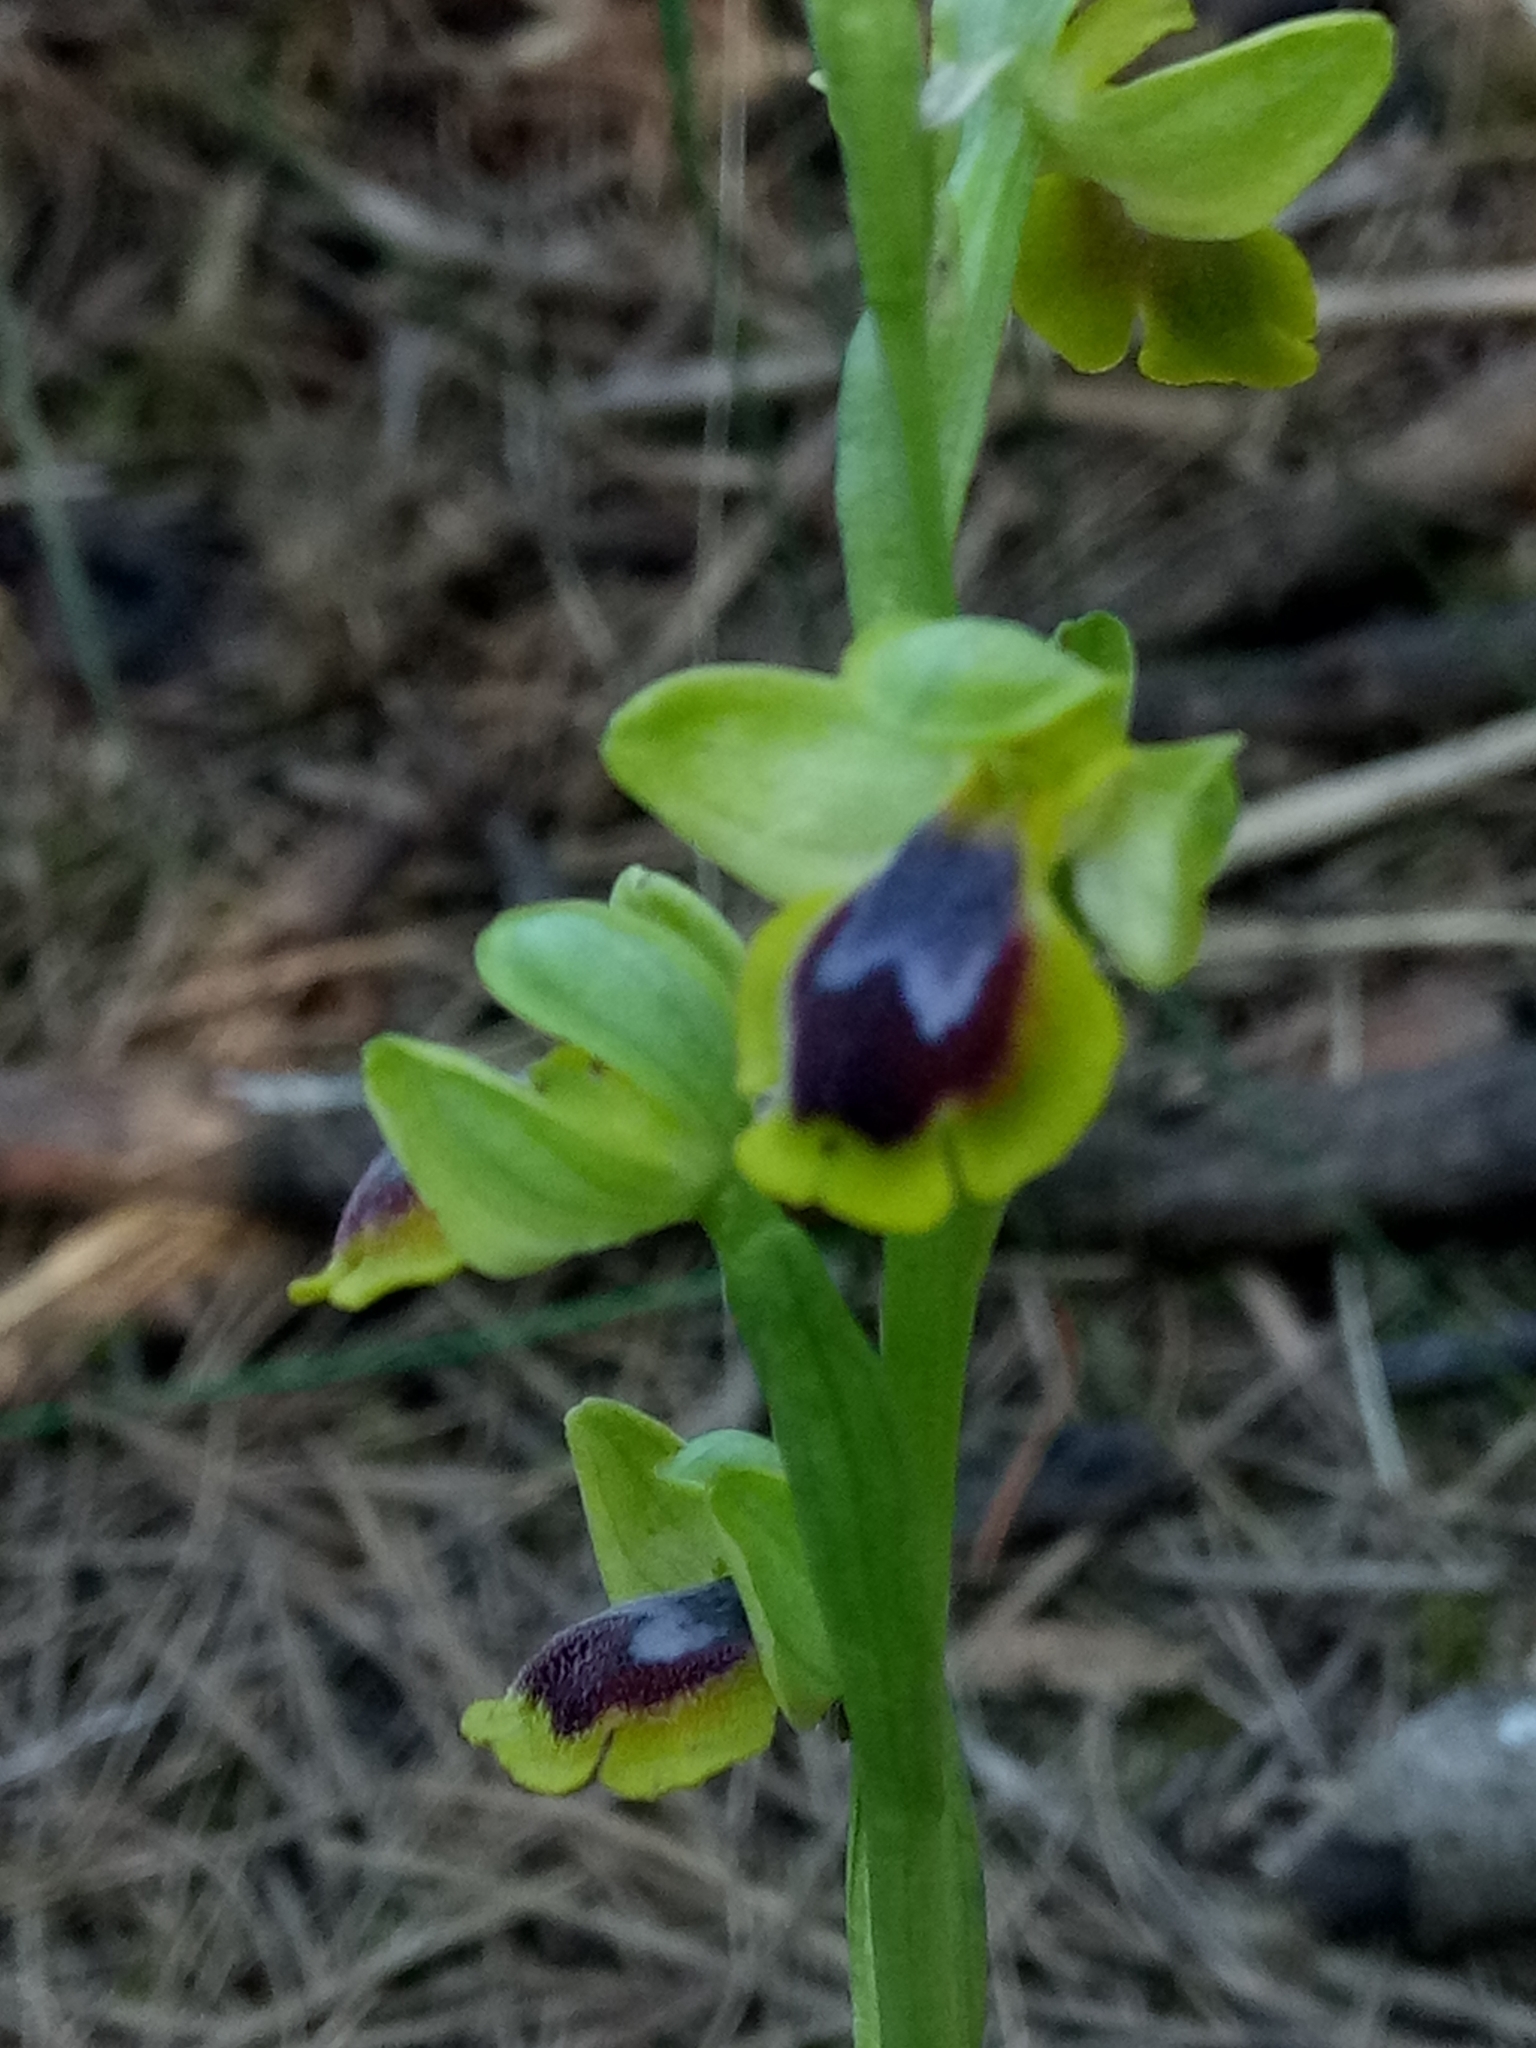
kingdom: Plantae
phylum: Tracheophyta
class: Liliopsida
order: Asparagales
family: Orchidaceae
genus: Ophrys
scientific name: Ophrys battandieri
